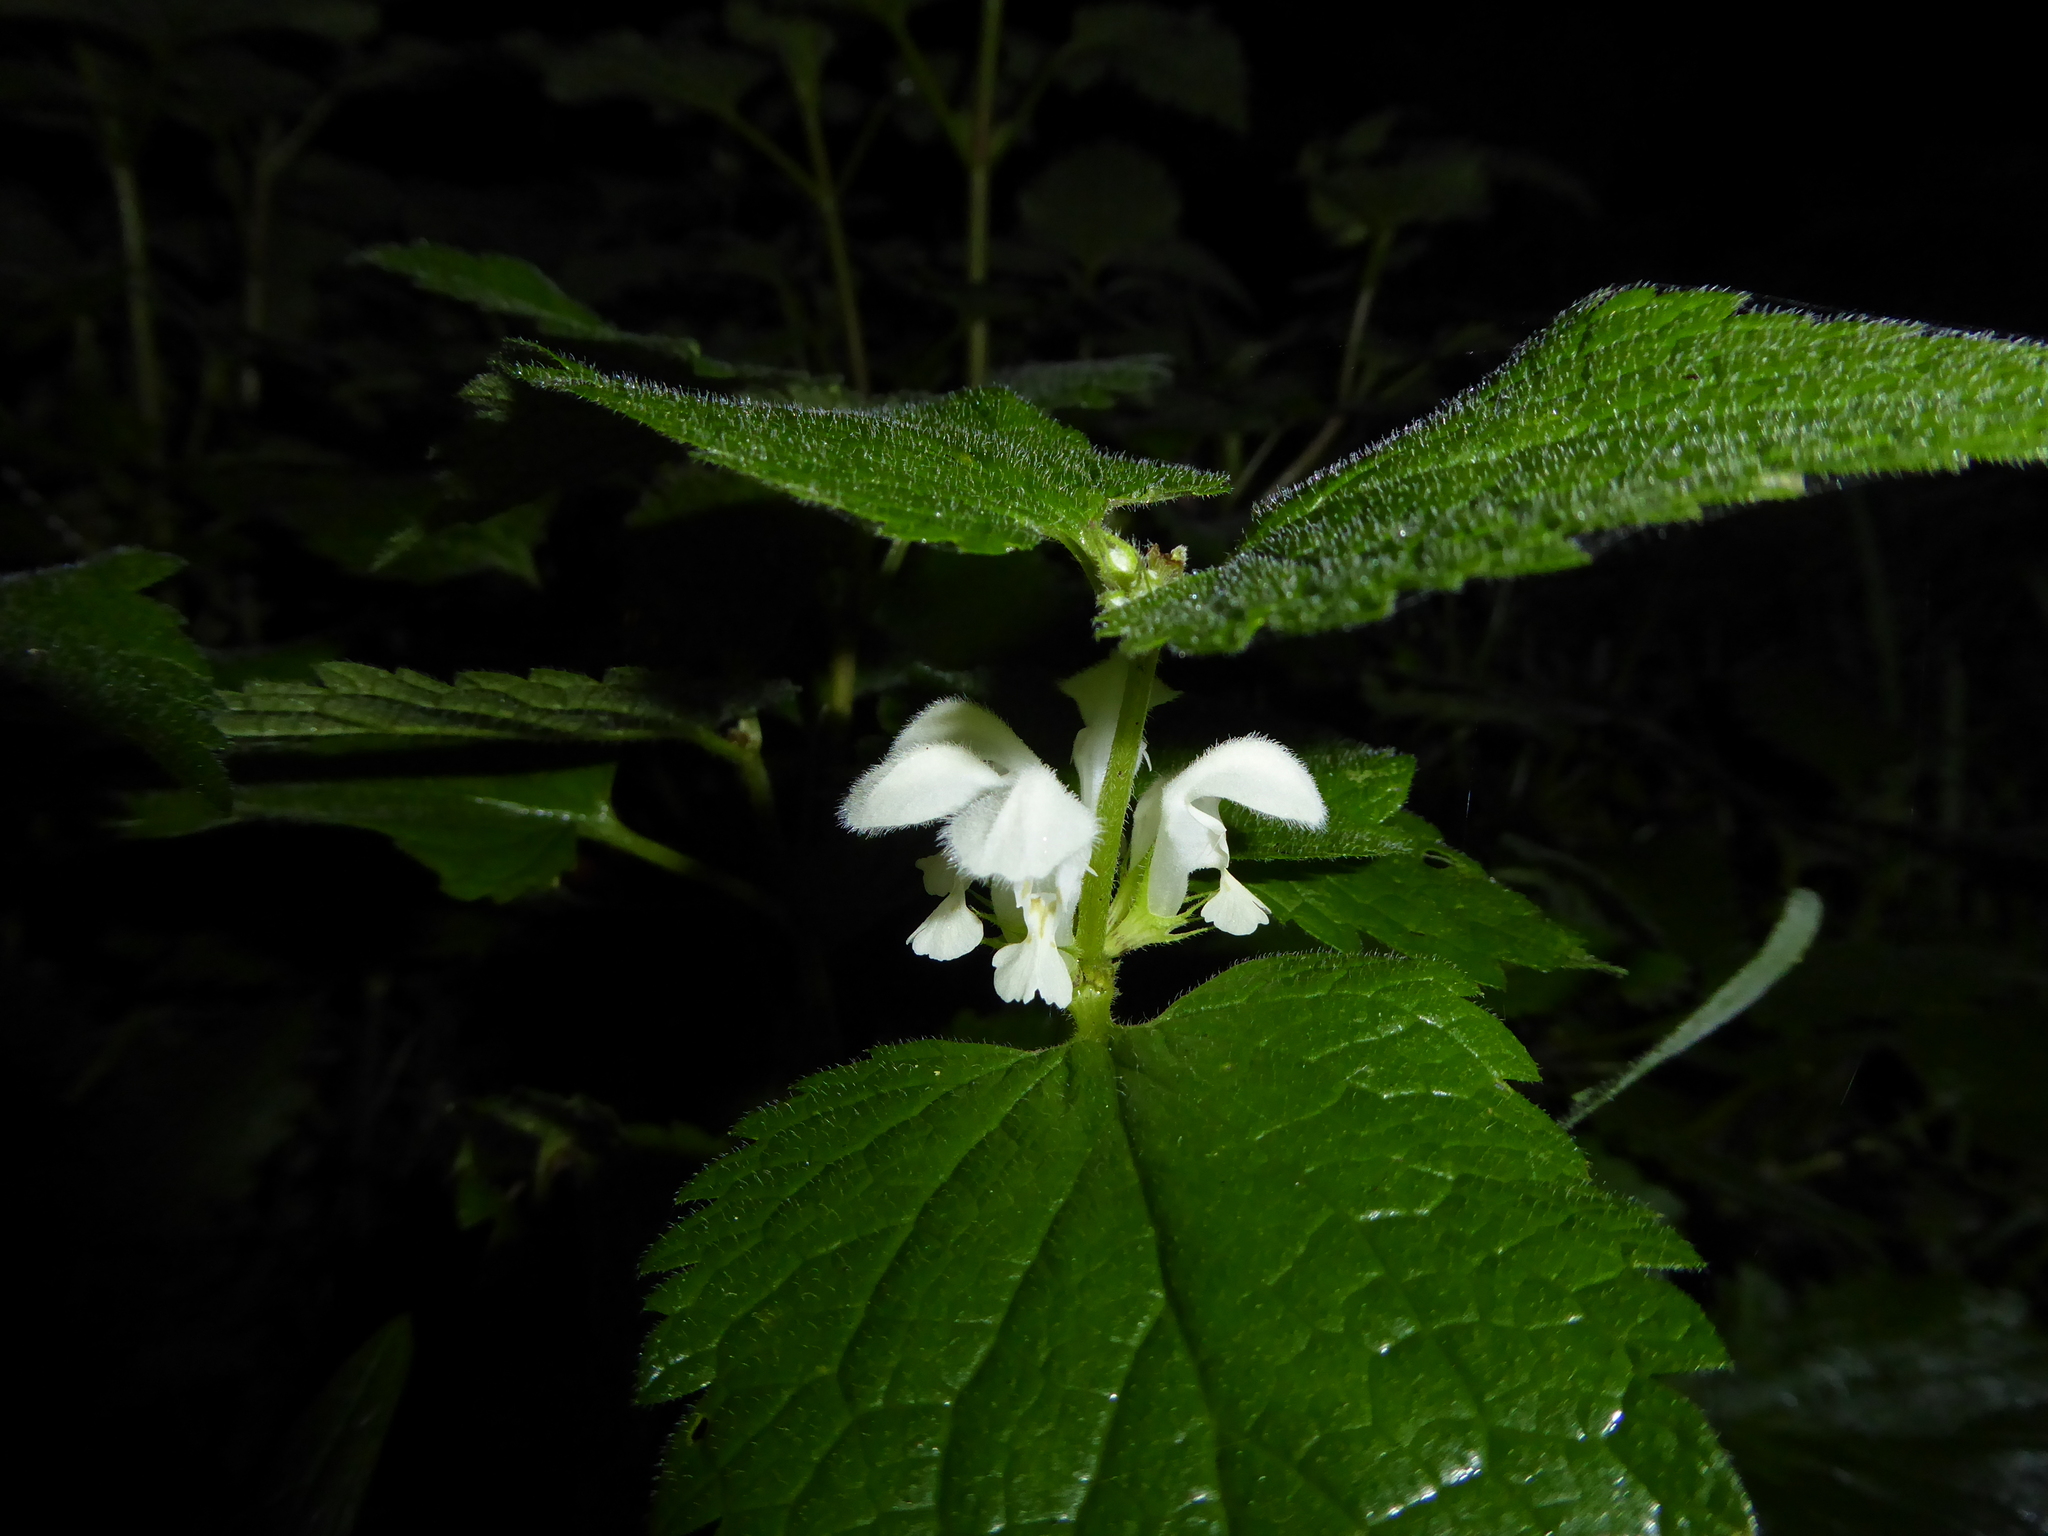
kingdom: Plantae
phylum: Tracheophyta
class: Magnoliopsida
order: Lamiales
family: Lamiaceae
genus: Lamium
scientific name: Lamium album
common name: White dead-nettle
